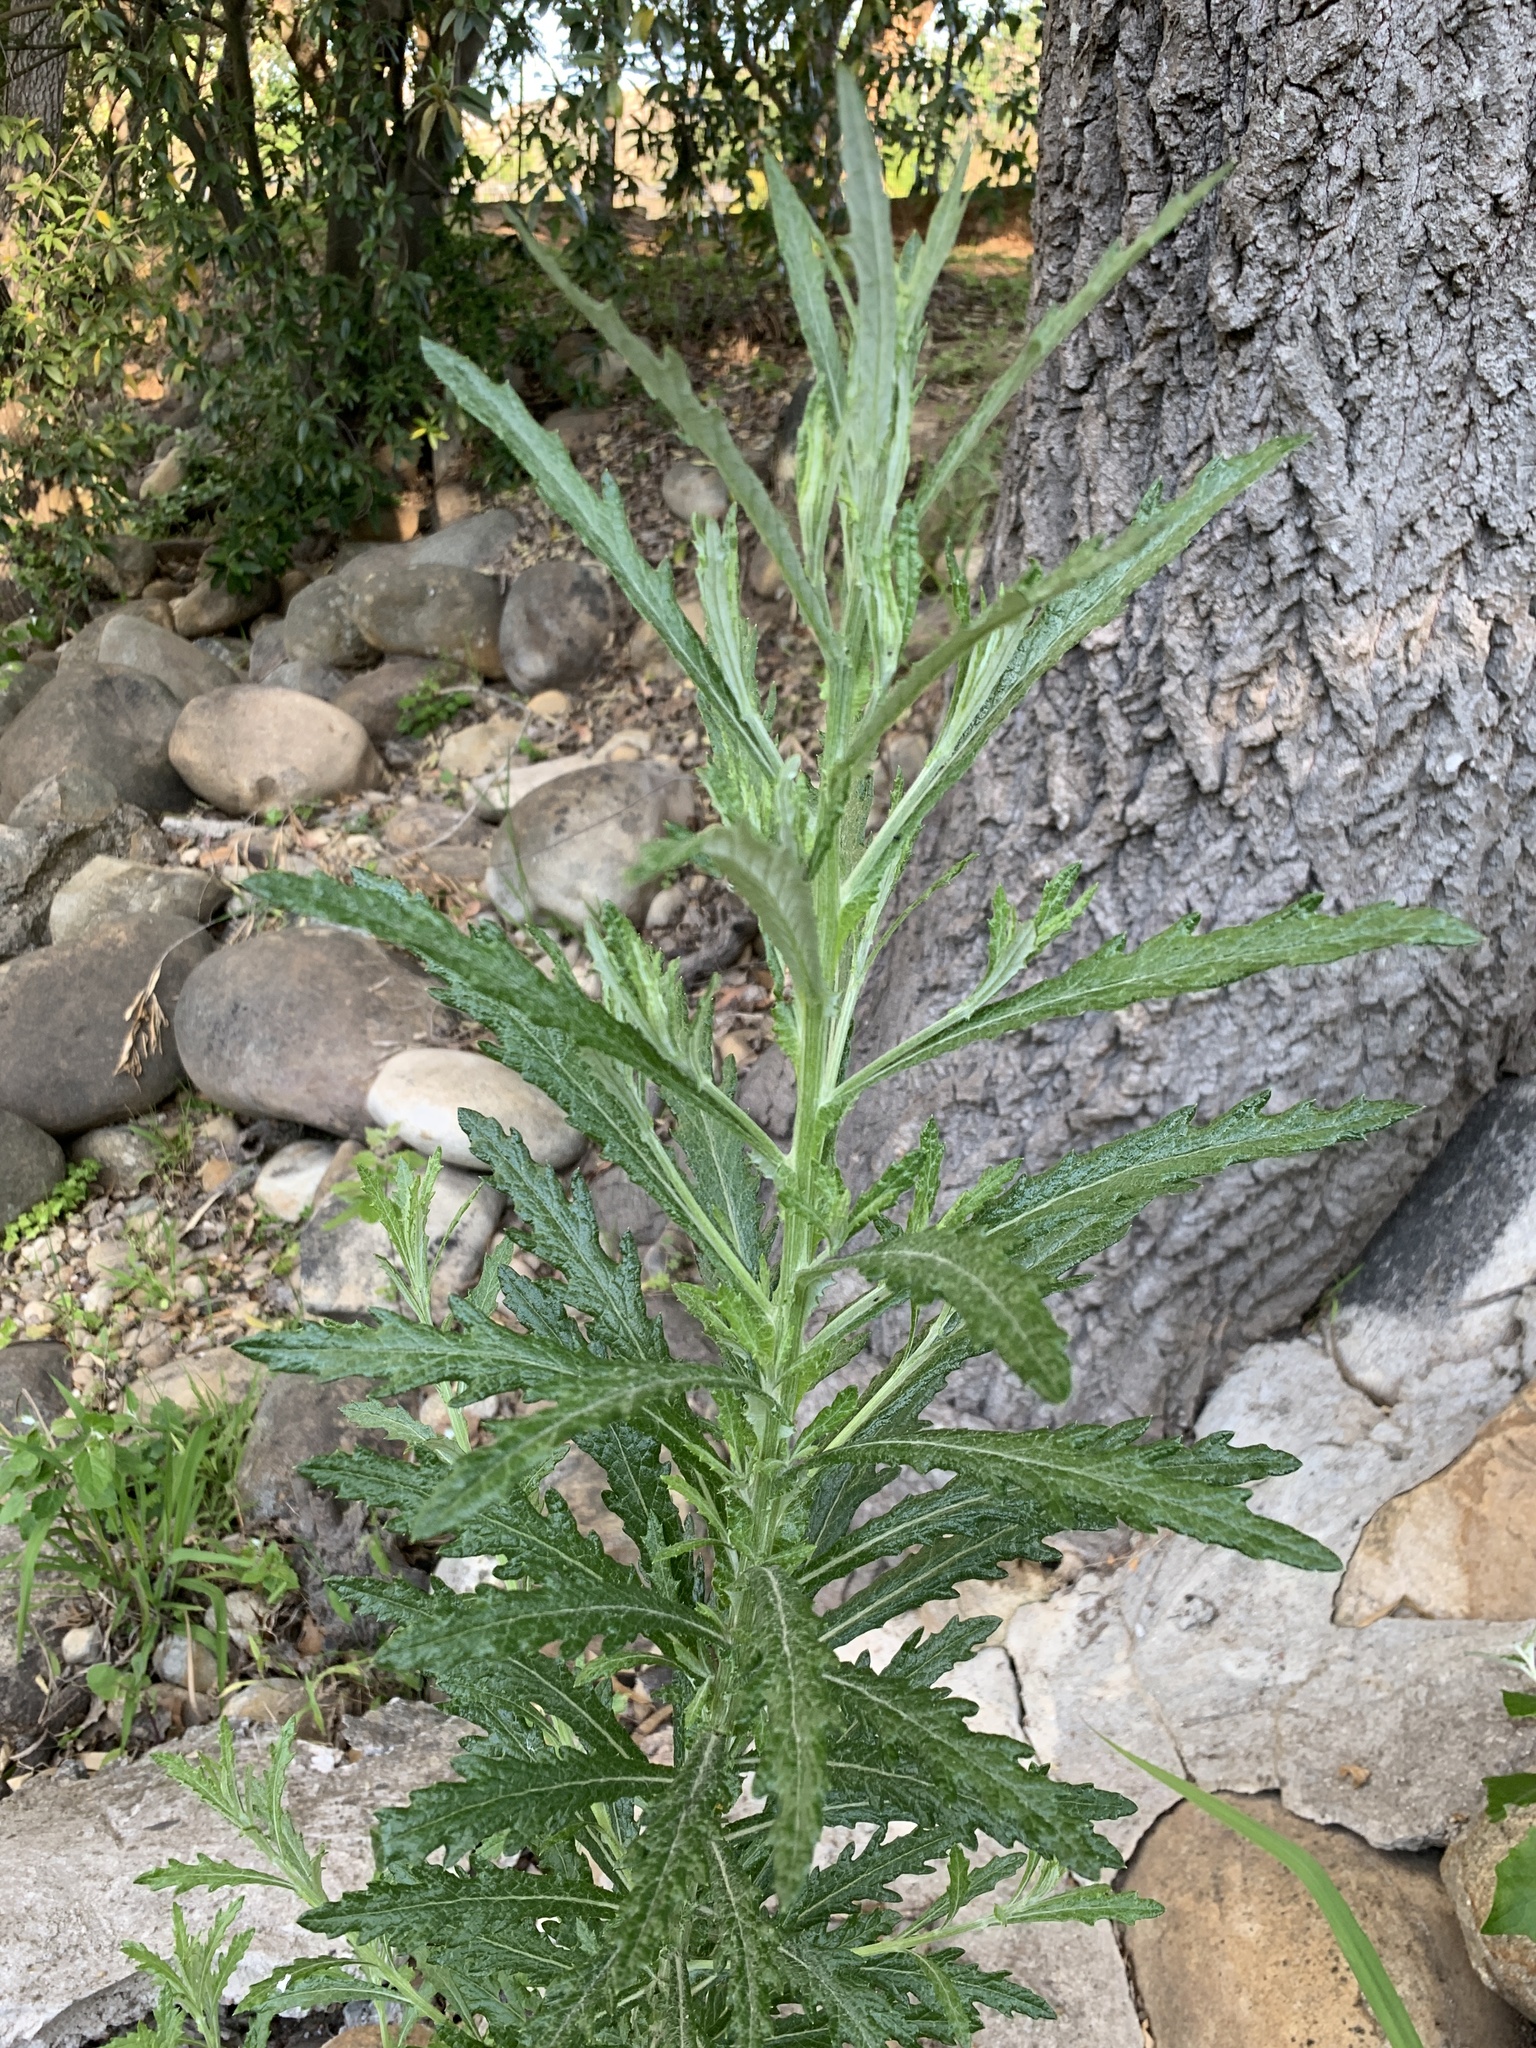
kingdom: Plantae
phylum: Tracheophyta
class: Magnoliopsida
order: Asterales
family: Asteraceae
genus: Senecio
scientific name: Senecio pterophorus
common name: Shoddy ragwort
